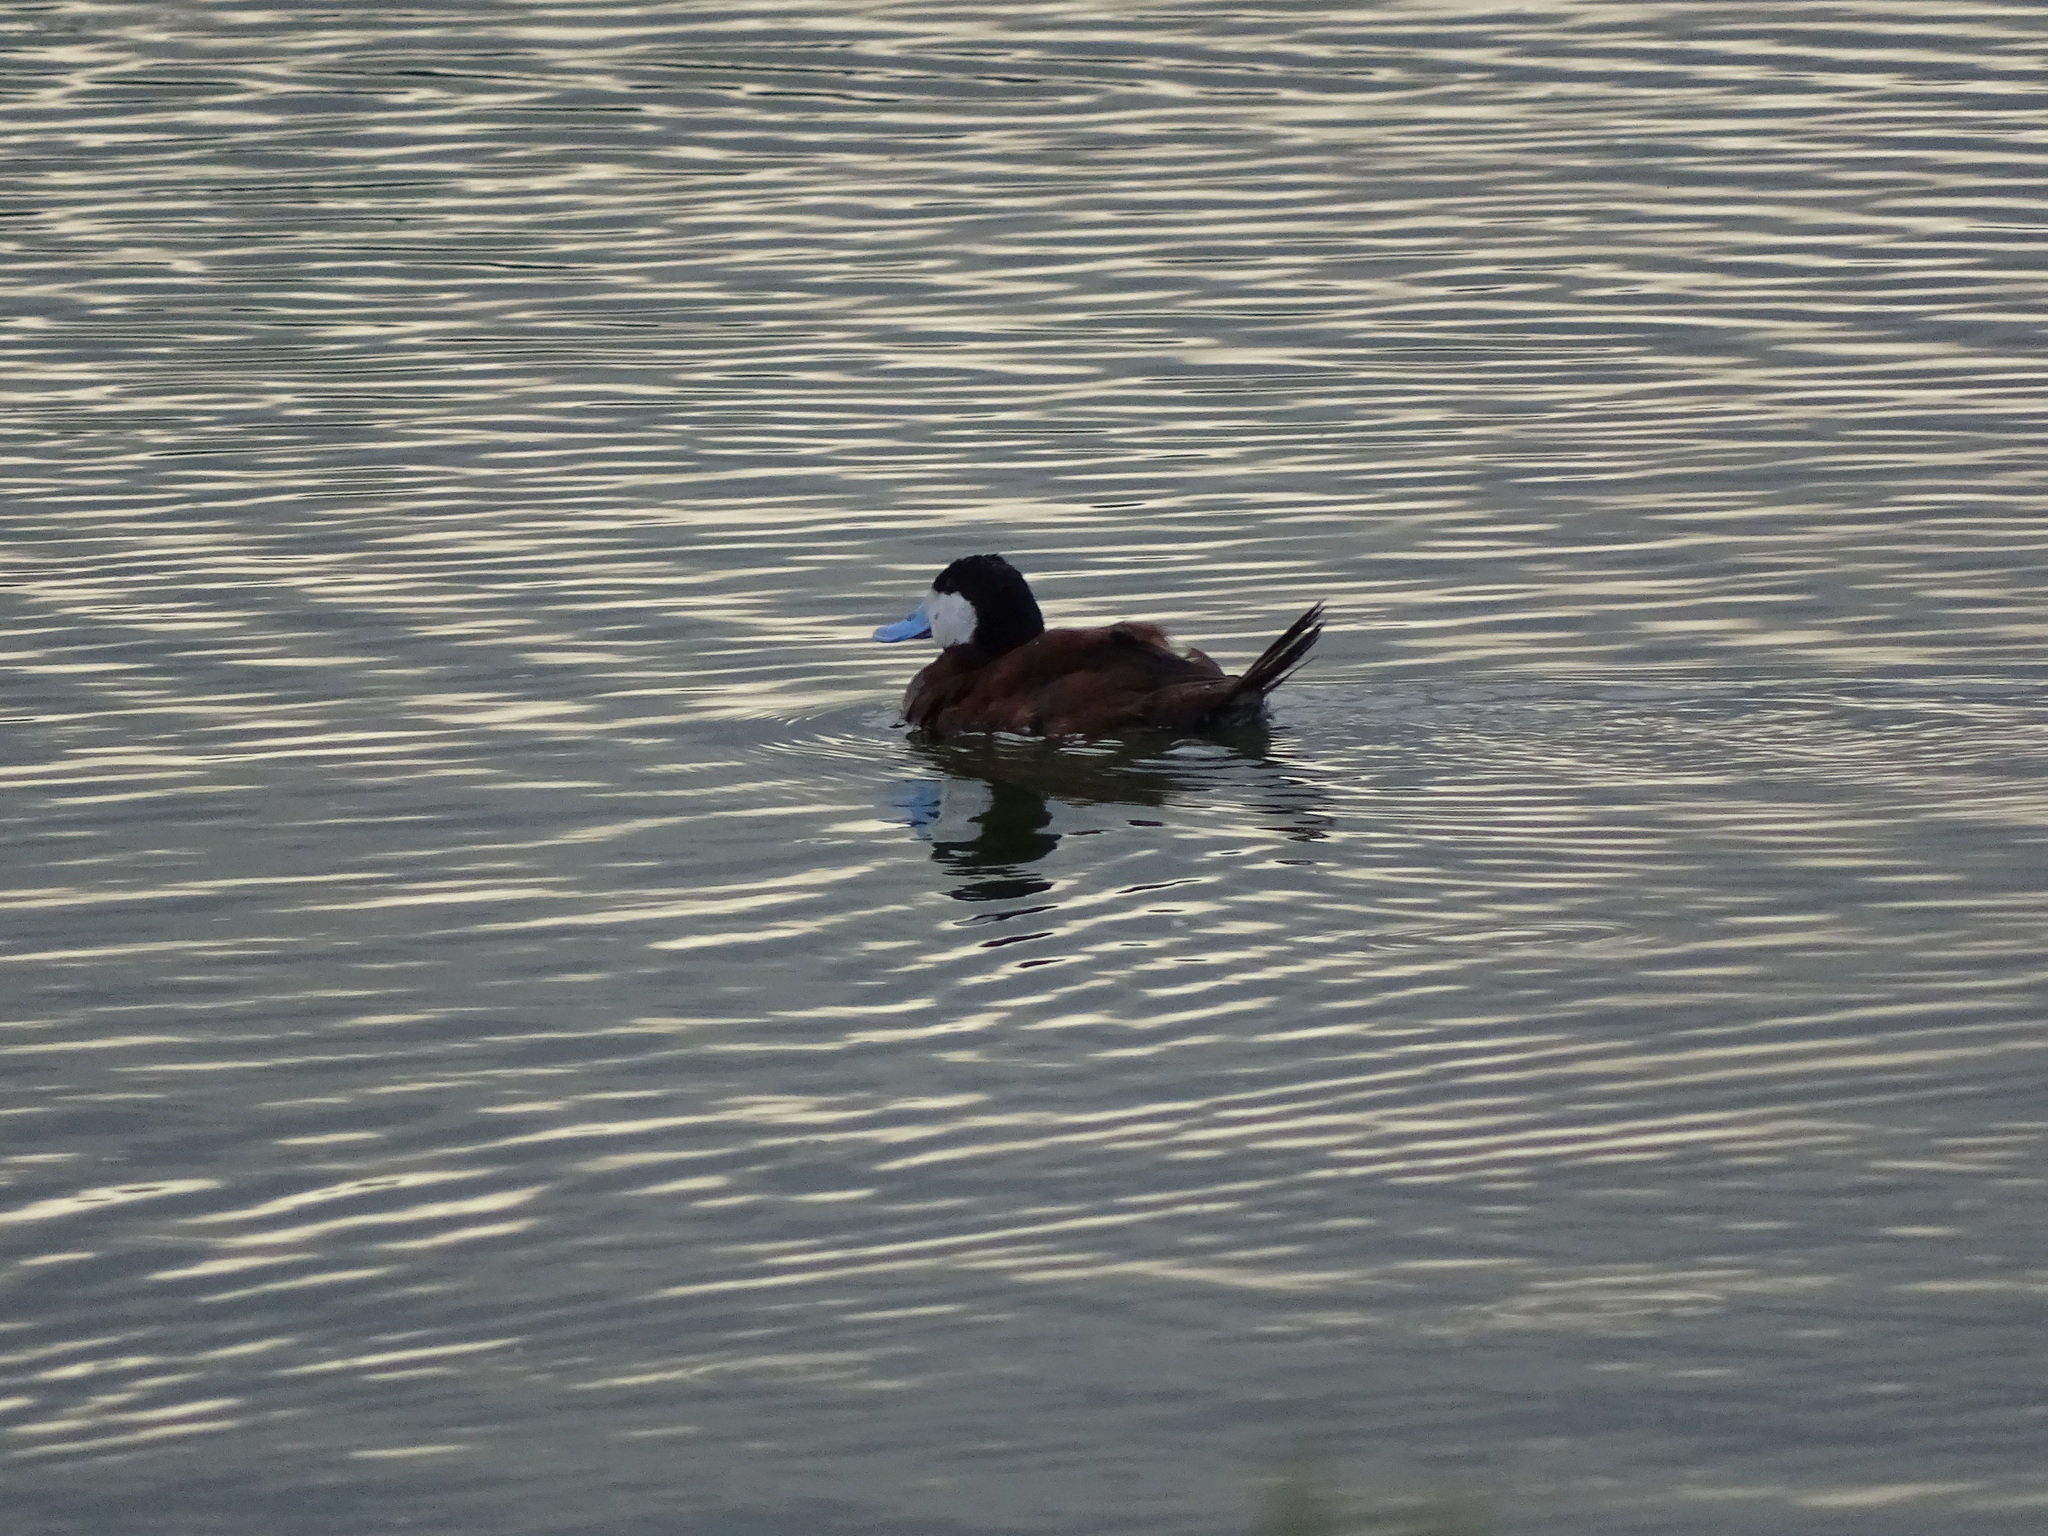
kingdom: Animalia
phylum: Chordata
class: Aves
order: Anseriformes
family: Anatidae
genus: Oxyura
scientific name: Oxyura jamaicensis
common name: Ruddy duck
